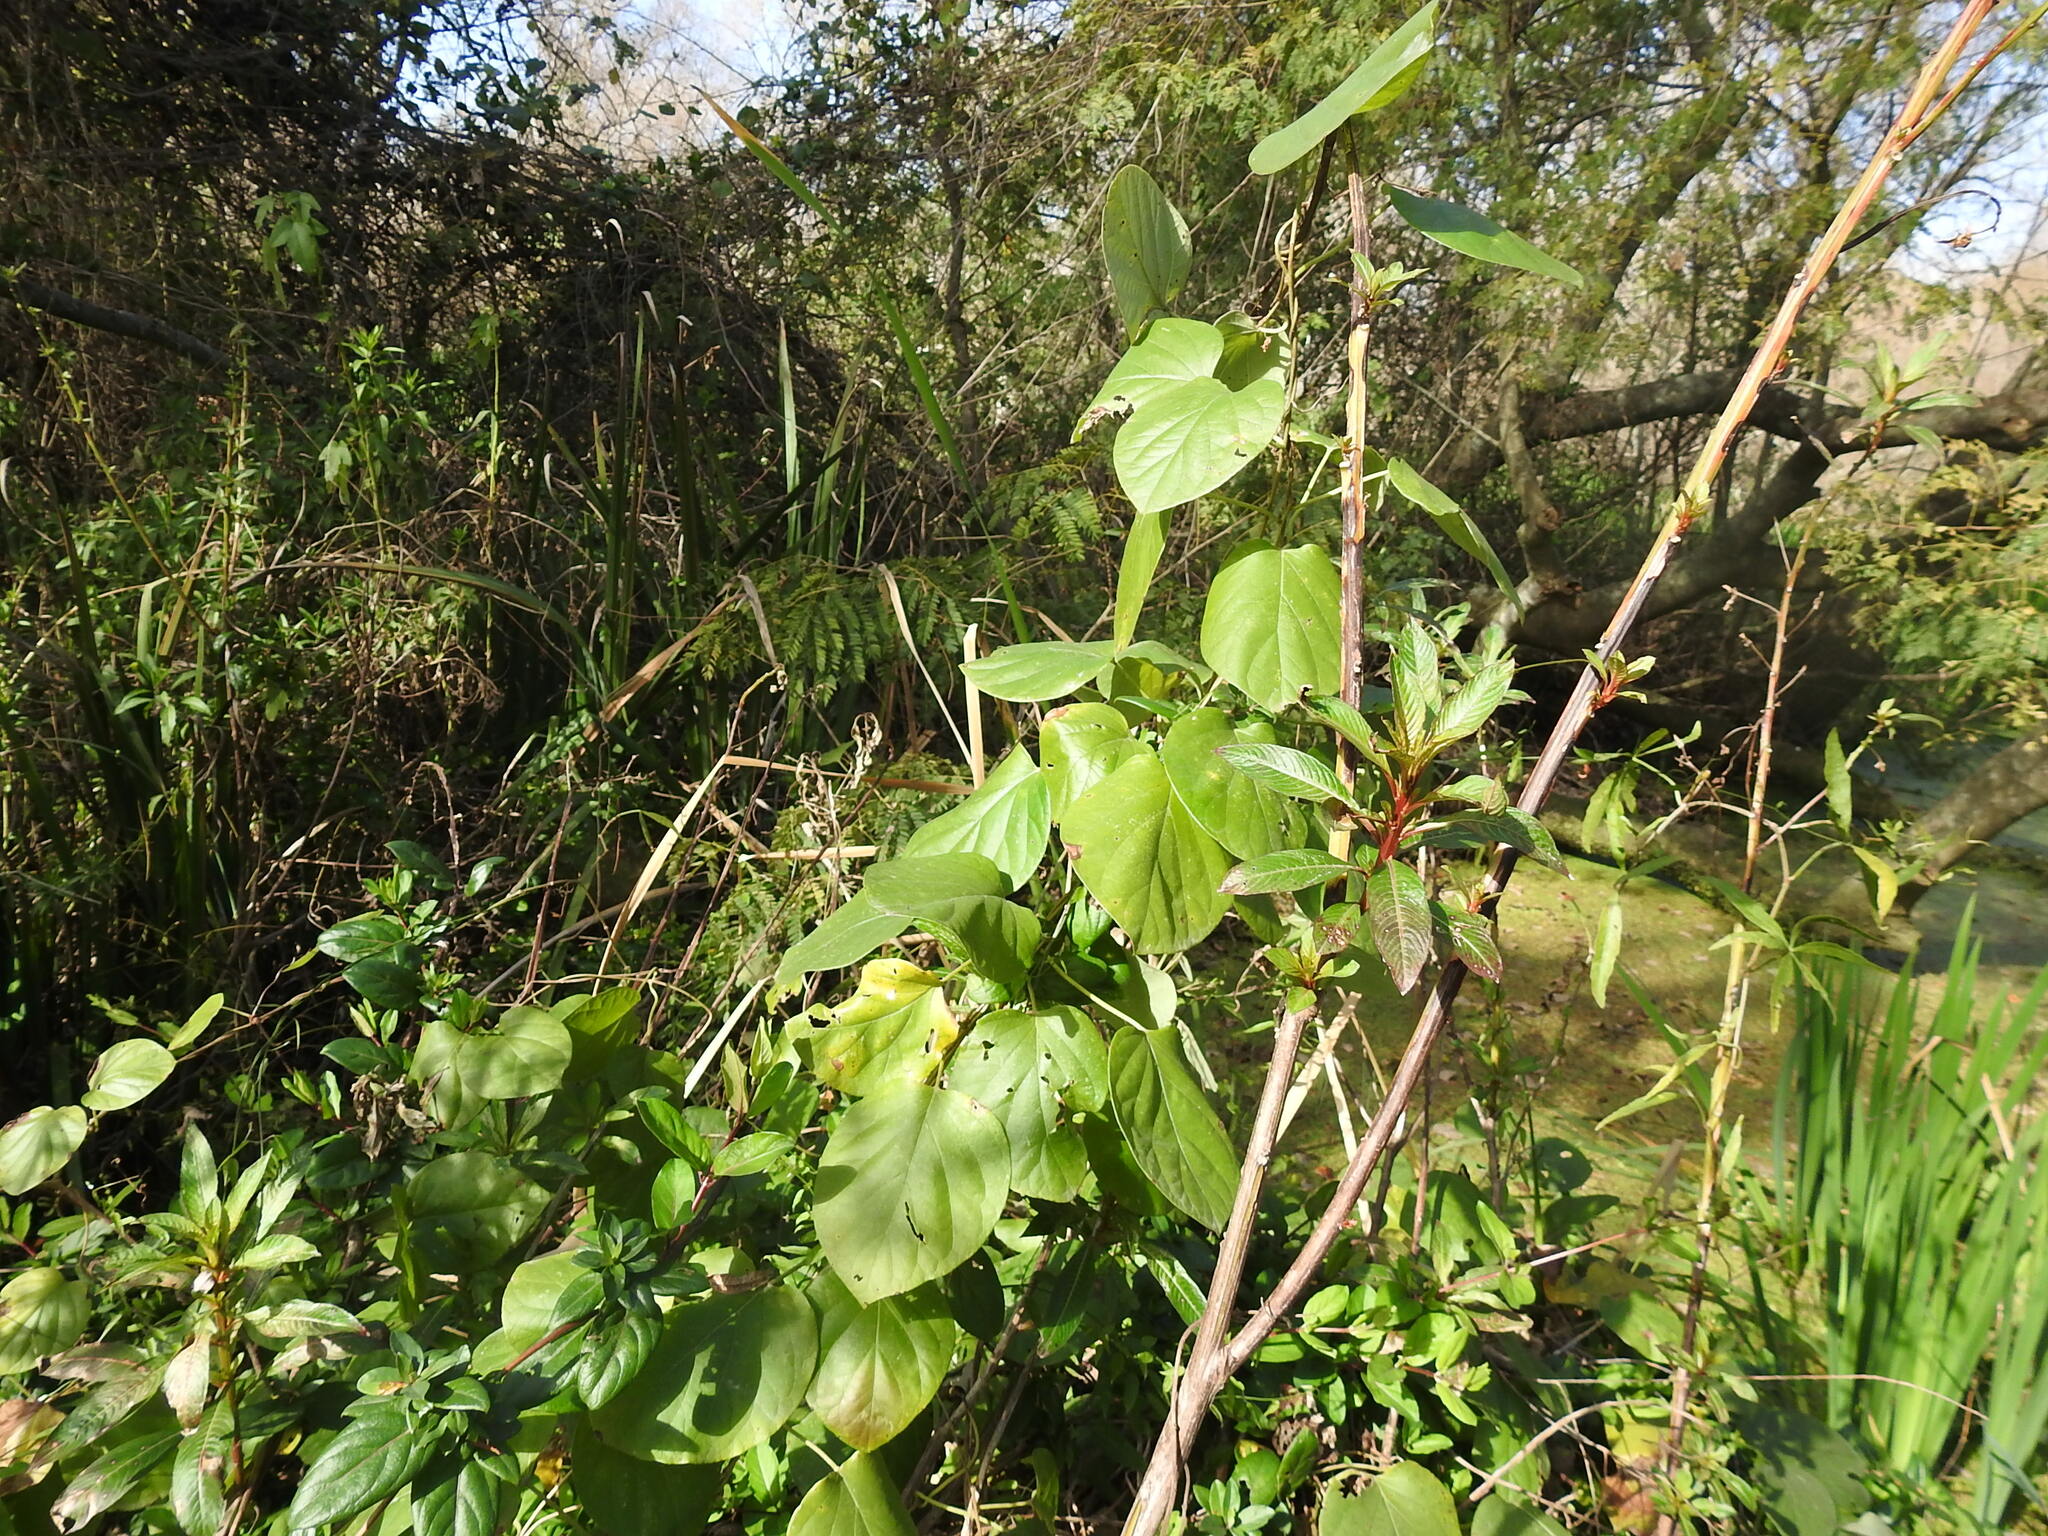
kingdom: Plantae
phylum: Tracheophyta
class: Magnoliopsida
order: Malpighiales
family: Malpighiaceae
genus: Stigmaphyllon
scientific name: Stigmaphyllon bonariense
